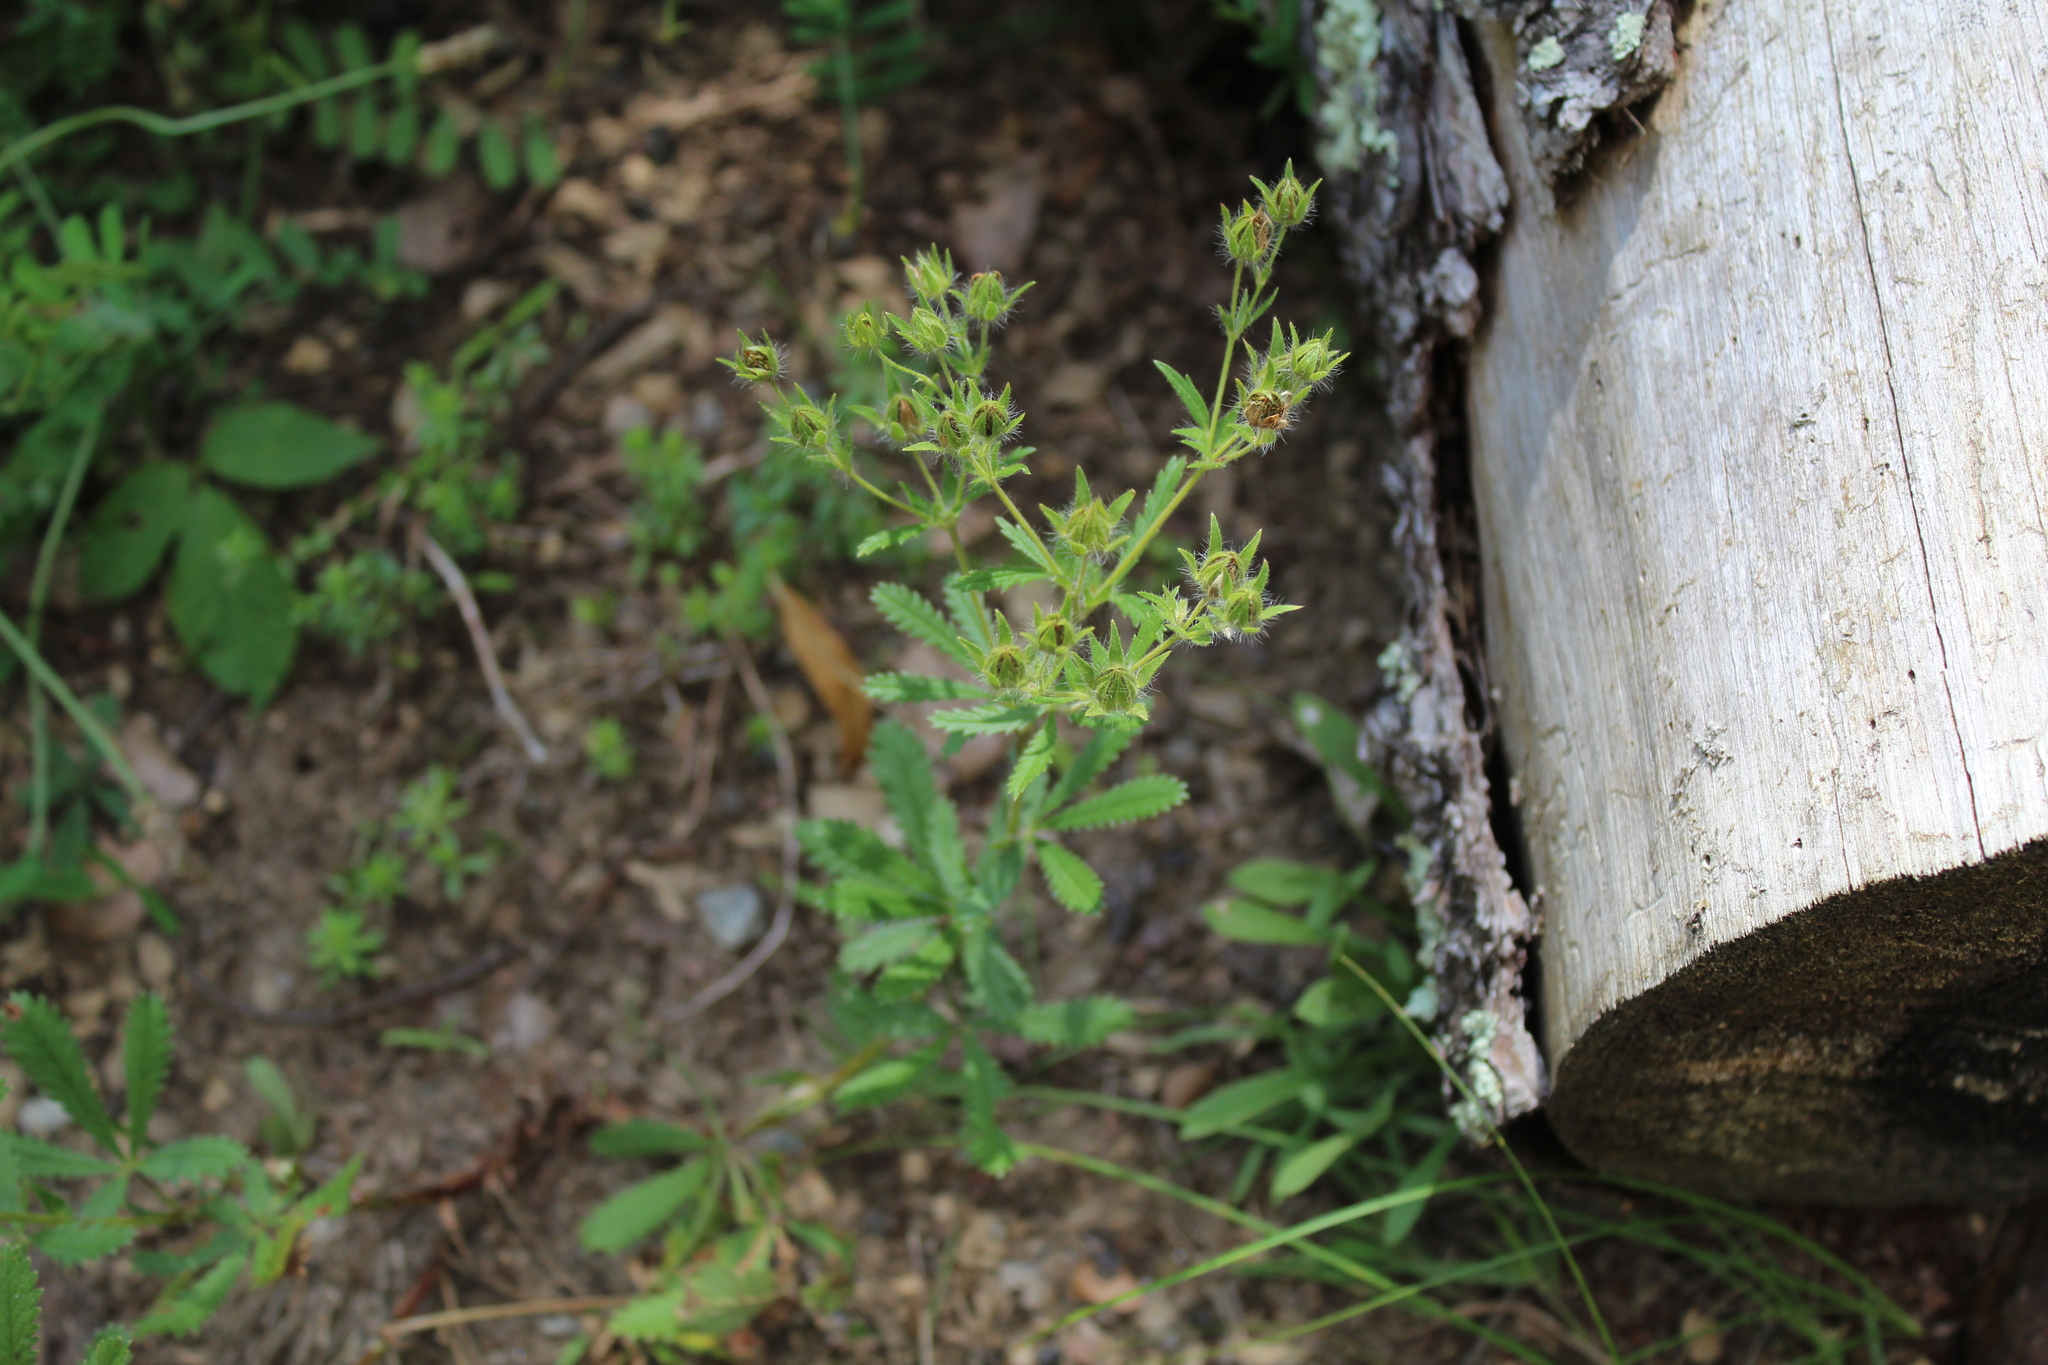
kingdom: Plantae
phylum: Tracheophyta
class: Magnoliopsida
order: Rosales
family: Rosaceae
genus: Potentilla
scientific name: Potentilla recta
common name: Sulphur cinquefoil
